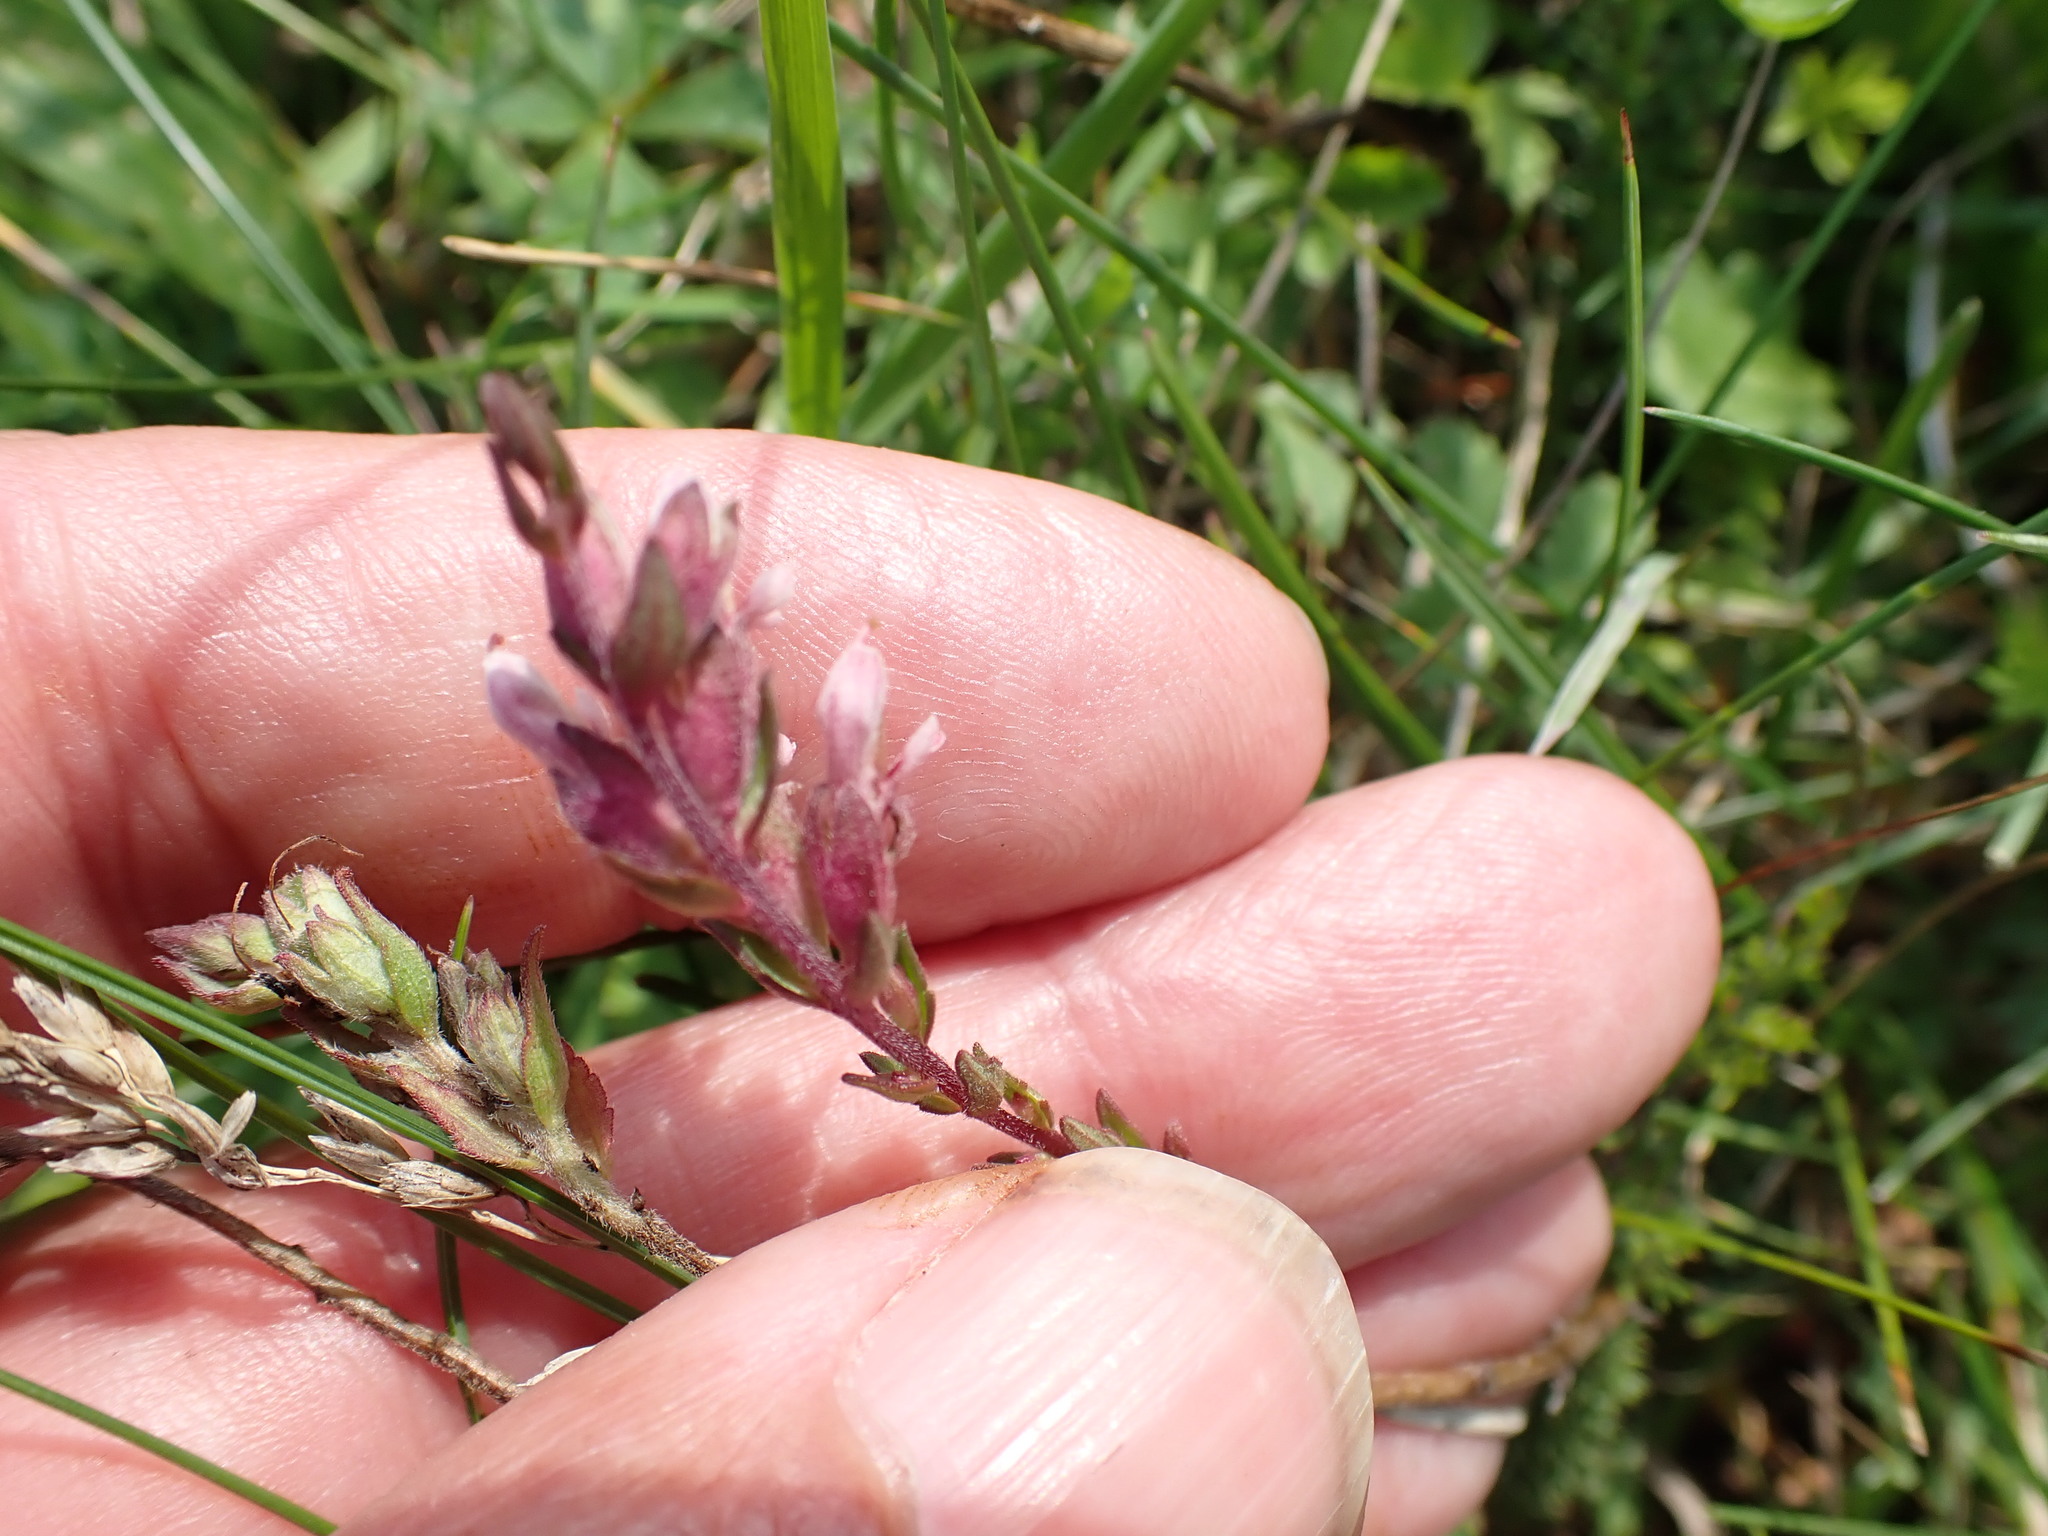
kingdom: Plantae
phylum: Tracheophyta
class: Magnoliopsida
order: Lamiales
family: Orobanchaceae
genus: Odontites
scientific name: Odontites vulgaris
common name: Broomrape
